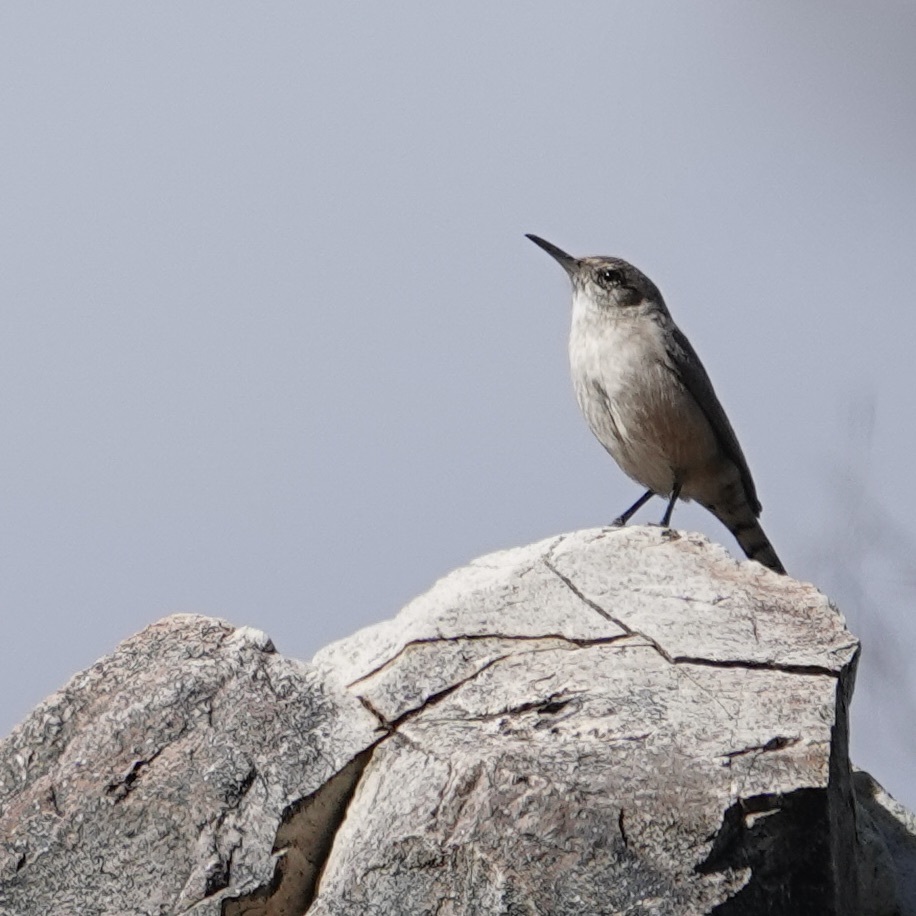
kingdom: Animalia
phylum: Chordata
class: Aves
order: Passeriformes
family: Troglodytidae
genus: Salpinctes
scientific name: Salpinctes obsoletus
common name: Rock wren
